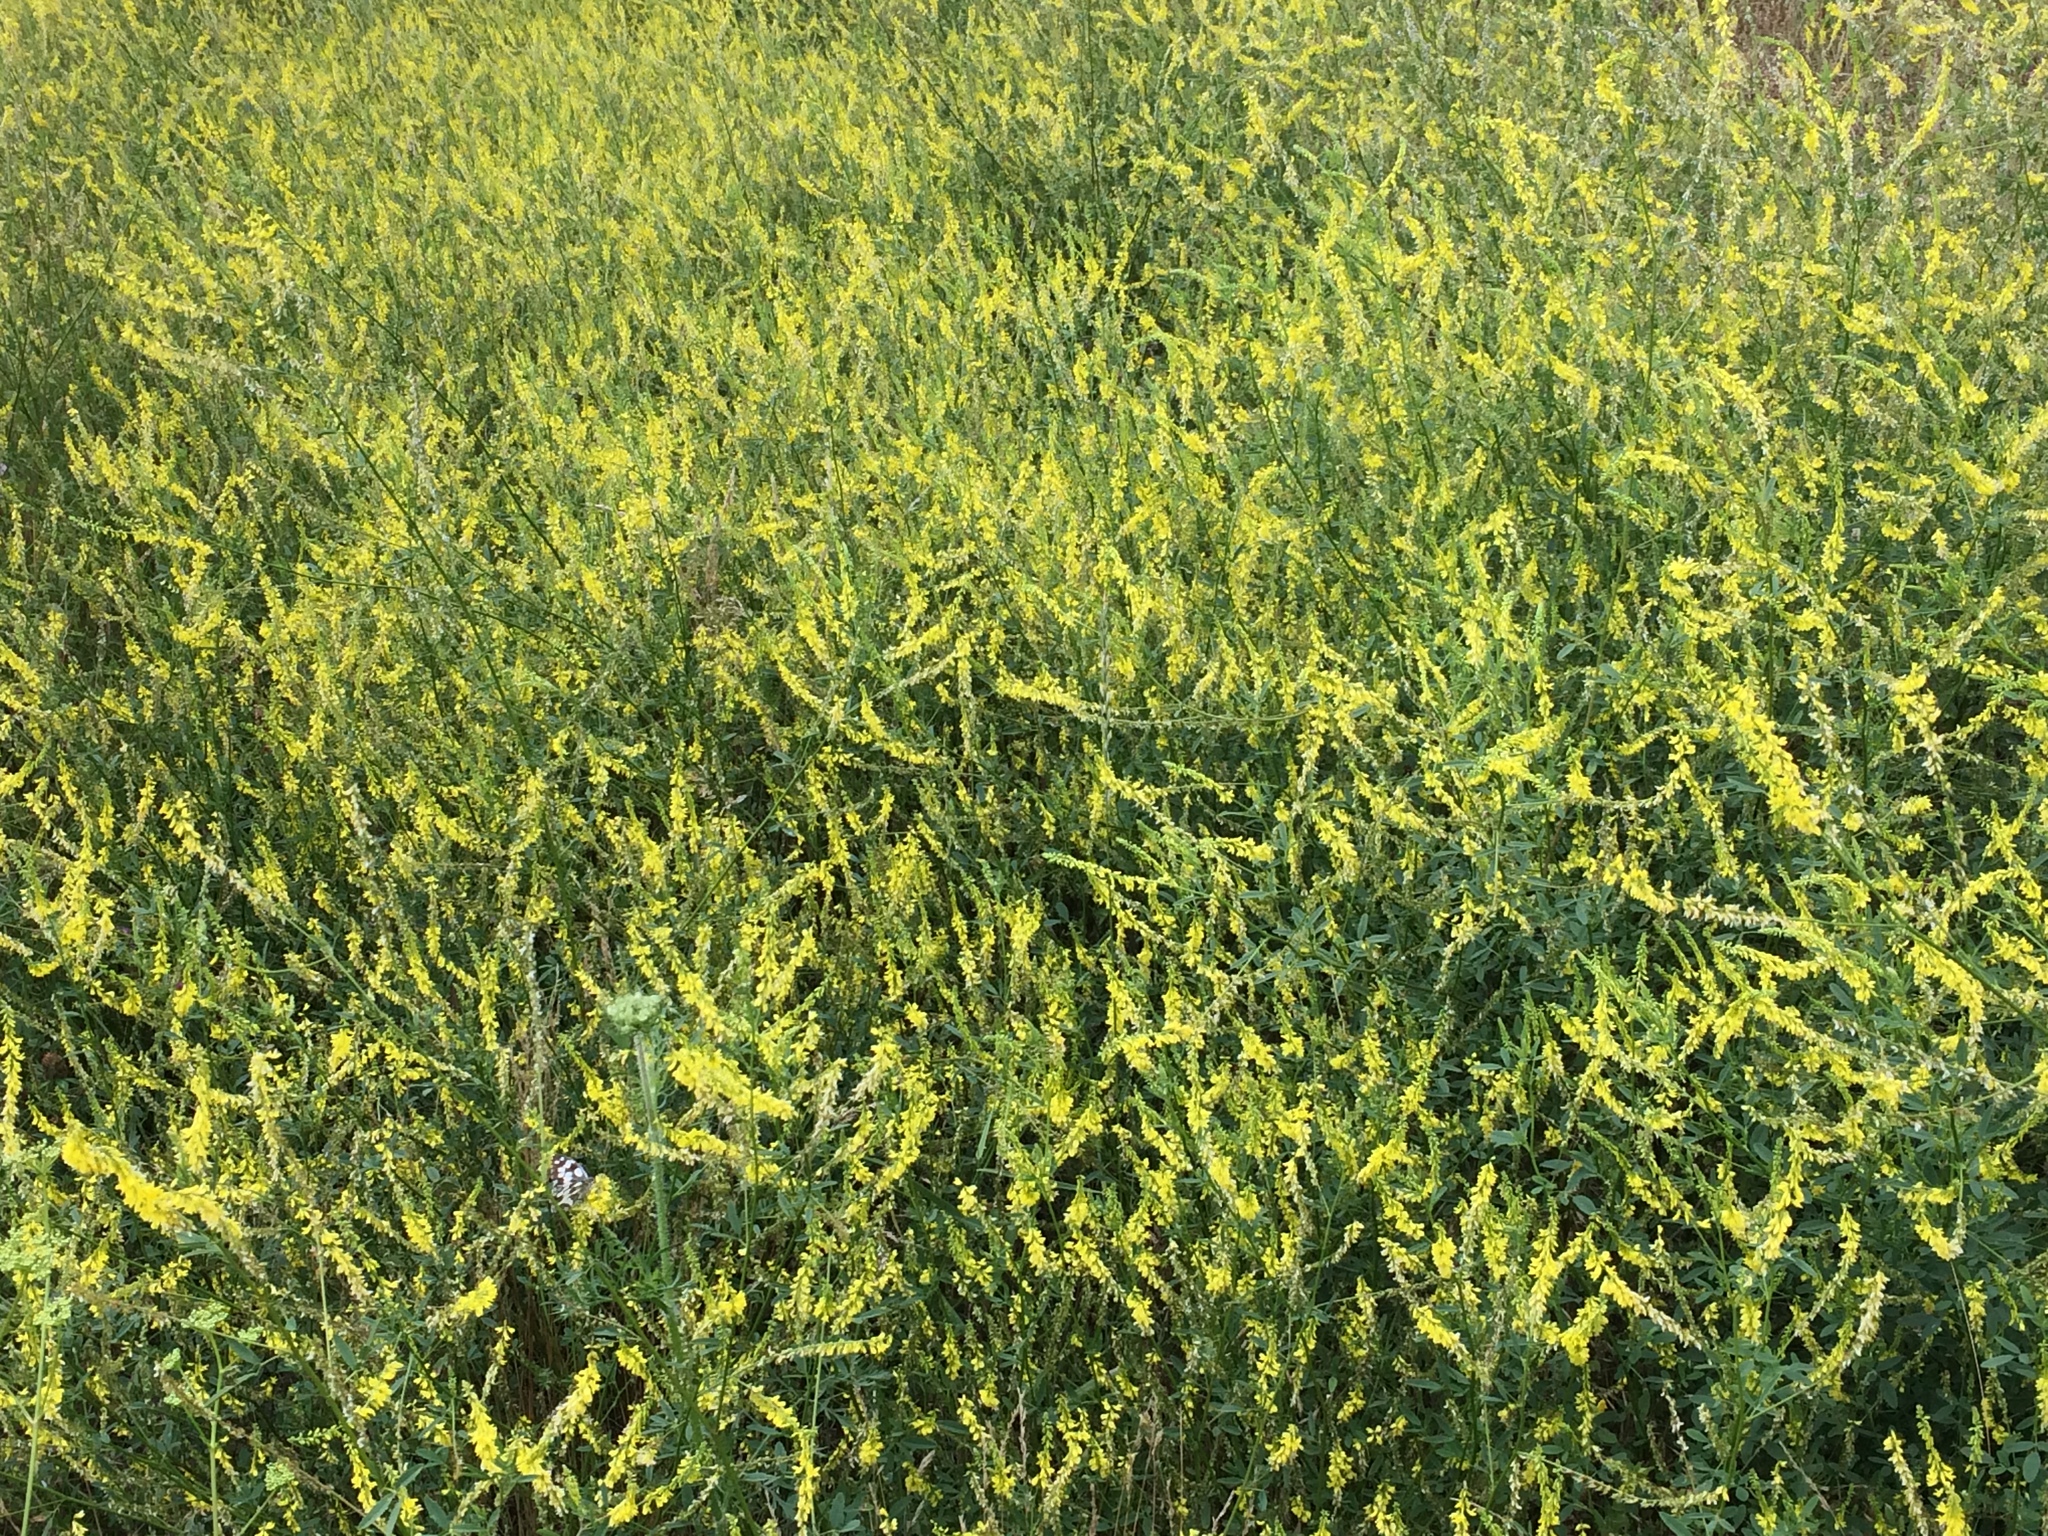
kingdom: Plantae
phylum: Tracheophyta
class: Magnoliopsida
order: Fabales
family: Fabaceae
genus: Melilotus
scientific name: Melilotus officinalis
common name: Sweetclover
